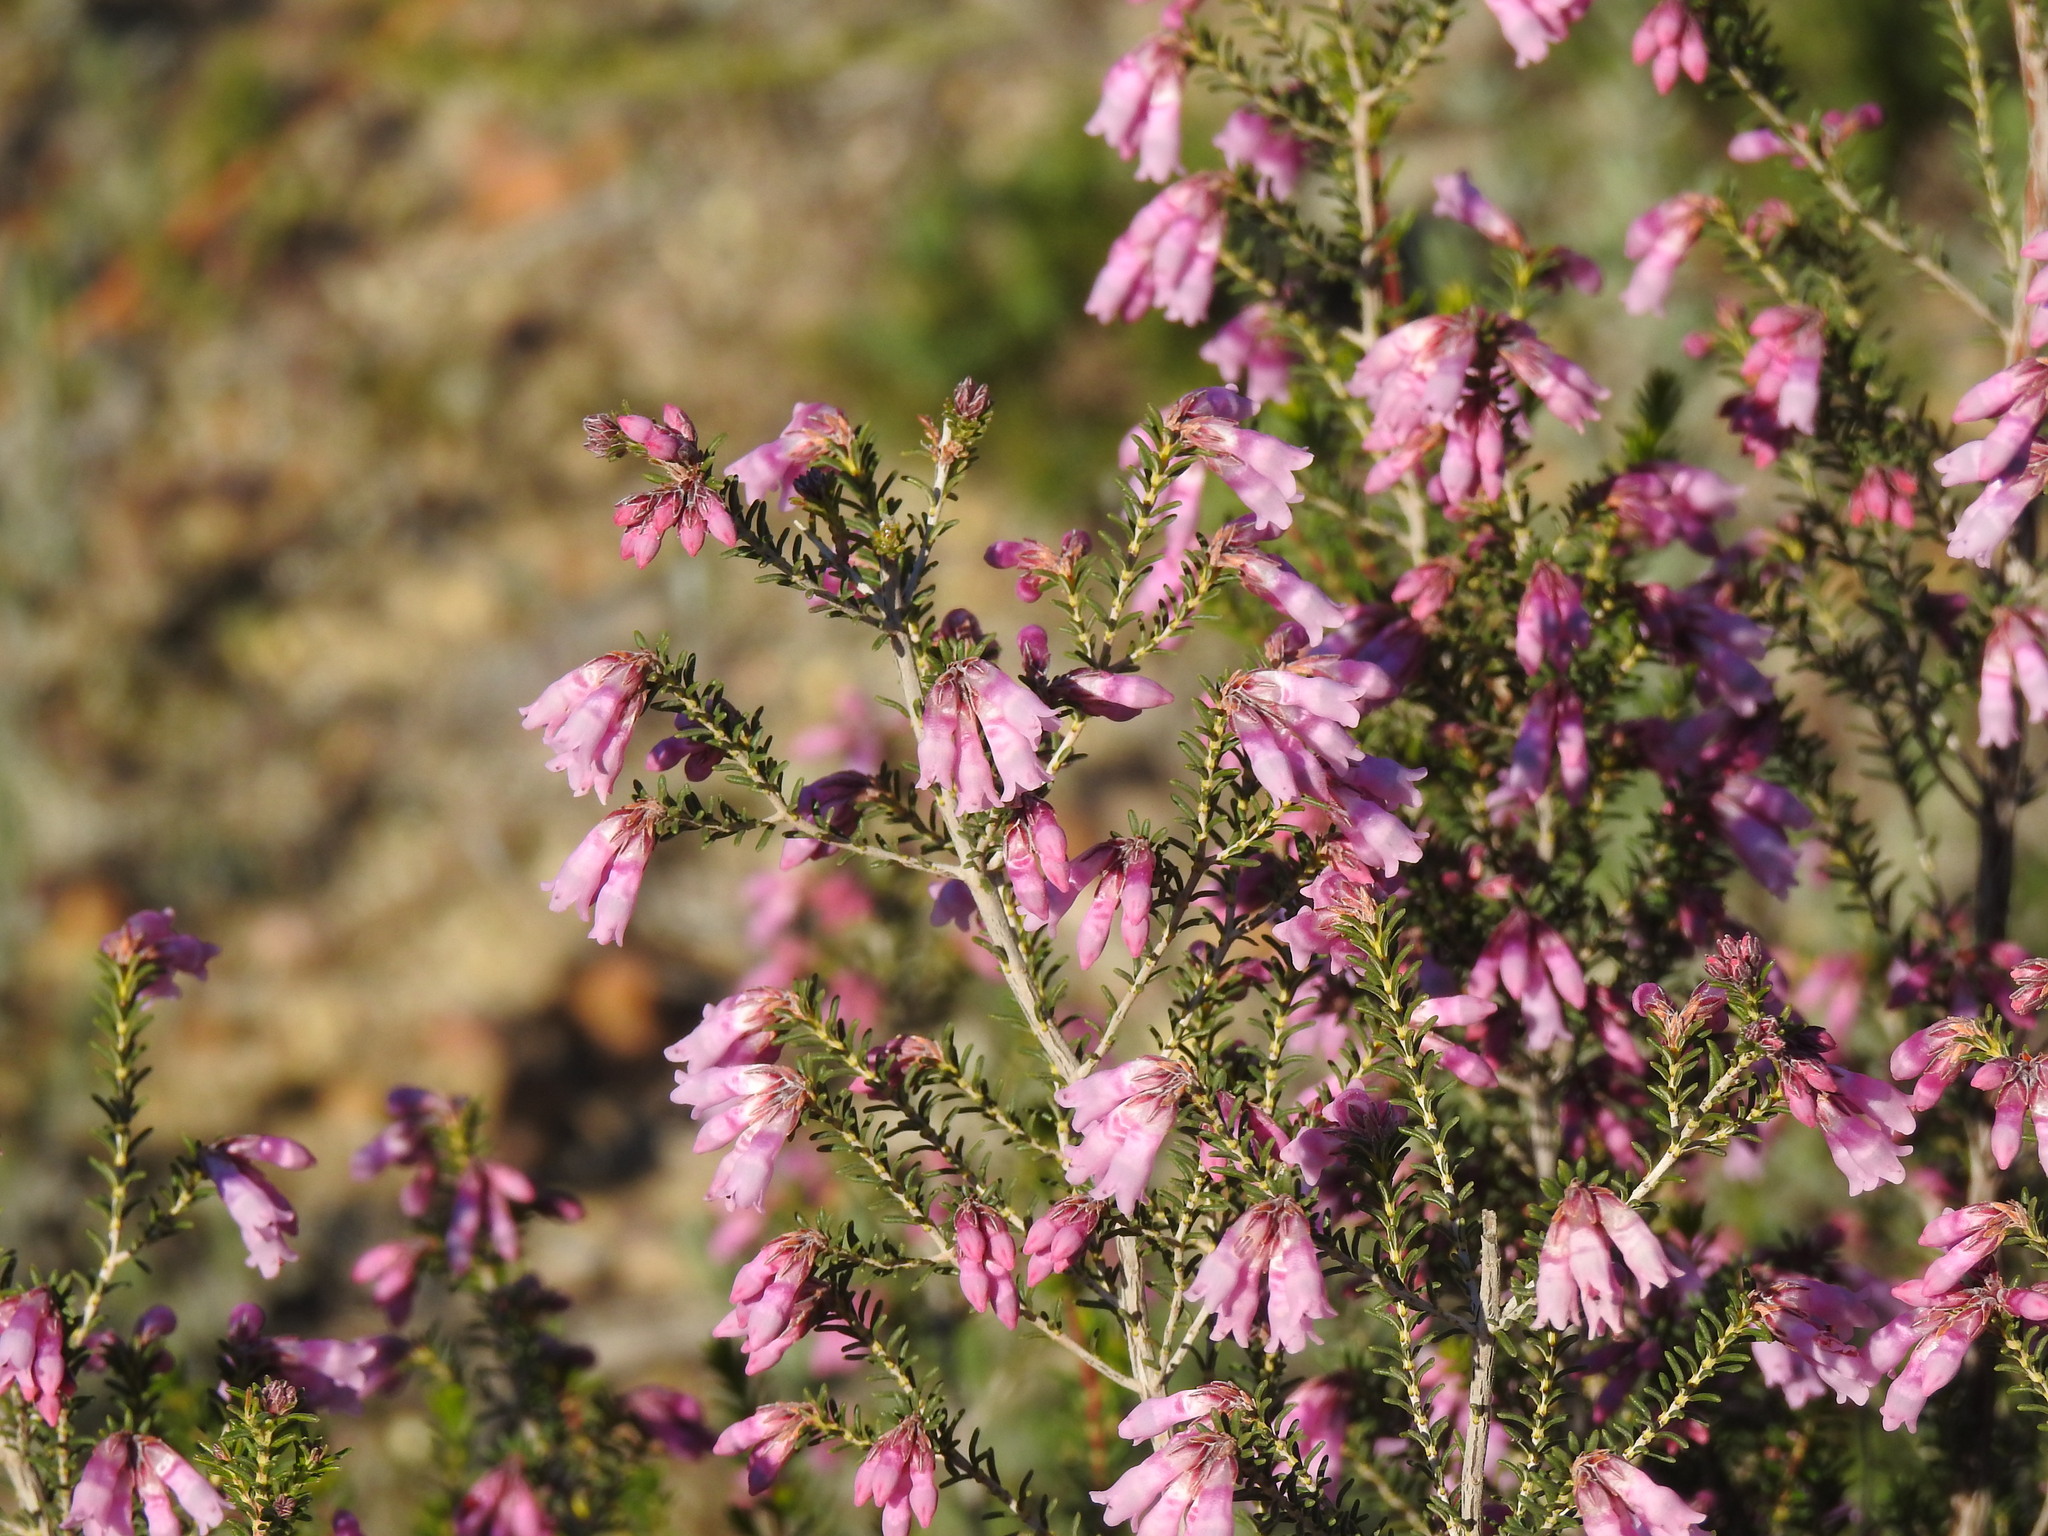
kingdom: Plantae
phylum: Tracheophyta
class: Magnoliopsida
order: Ericales
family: Ericaceae
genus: Erica
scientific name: Erica australis
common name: Spanish heath
